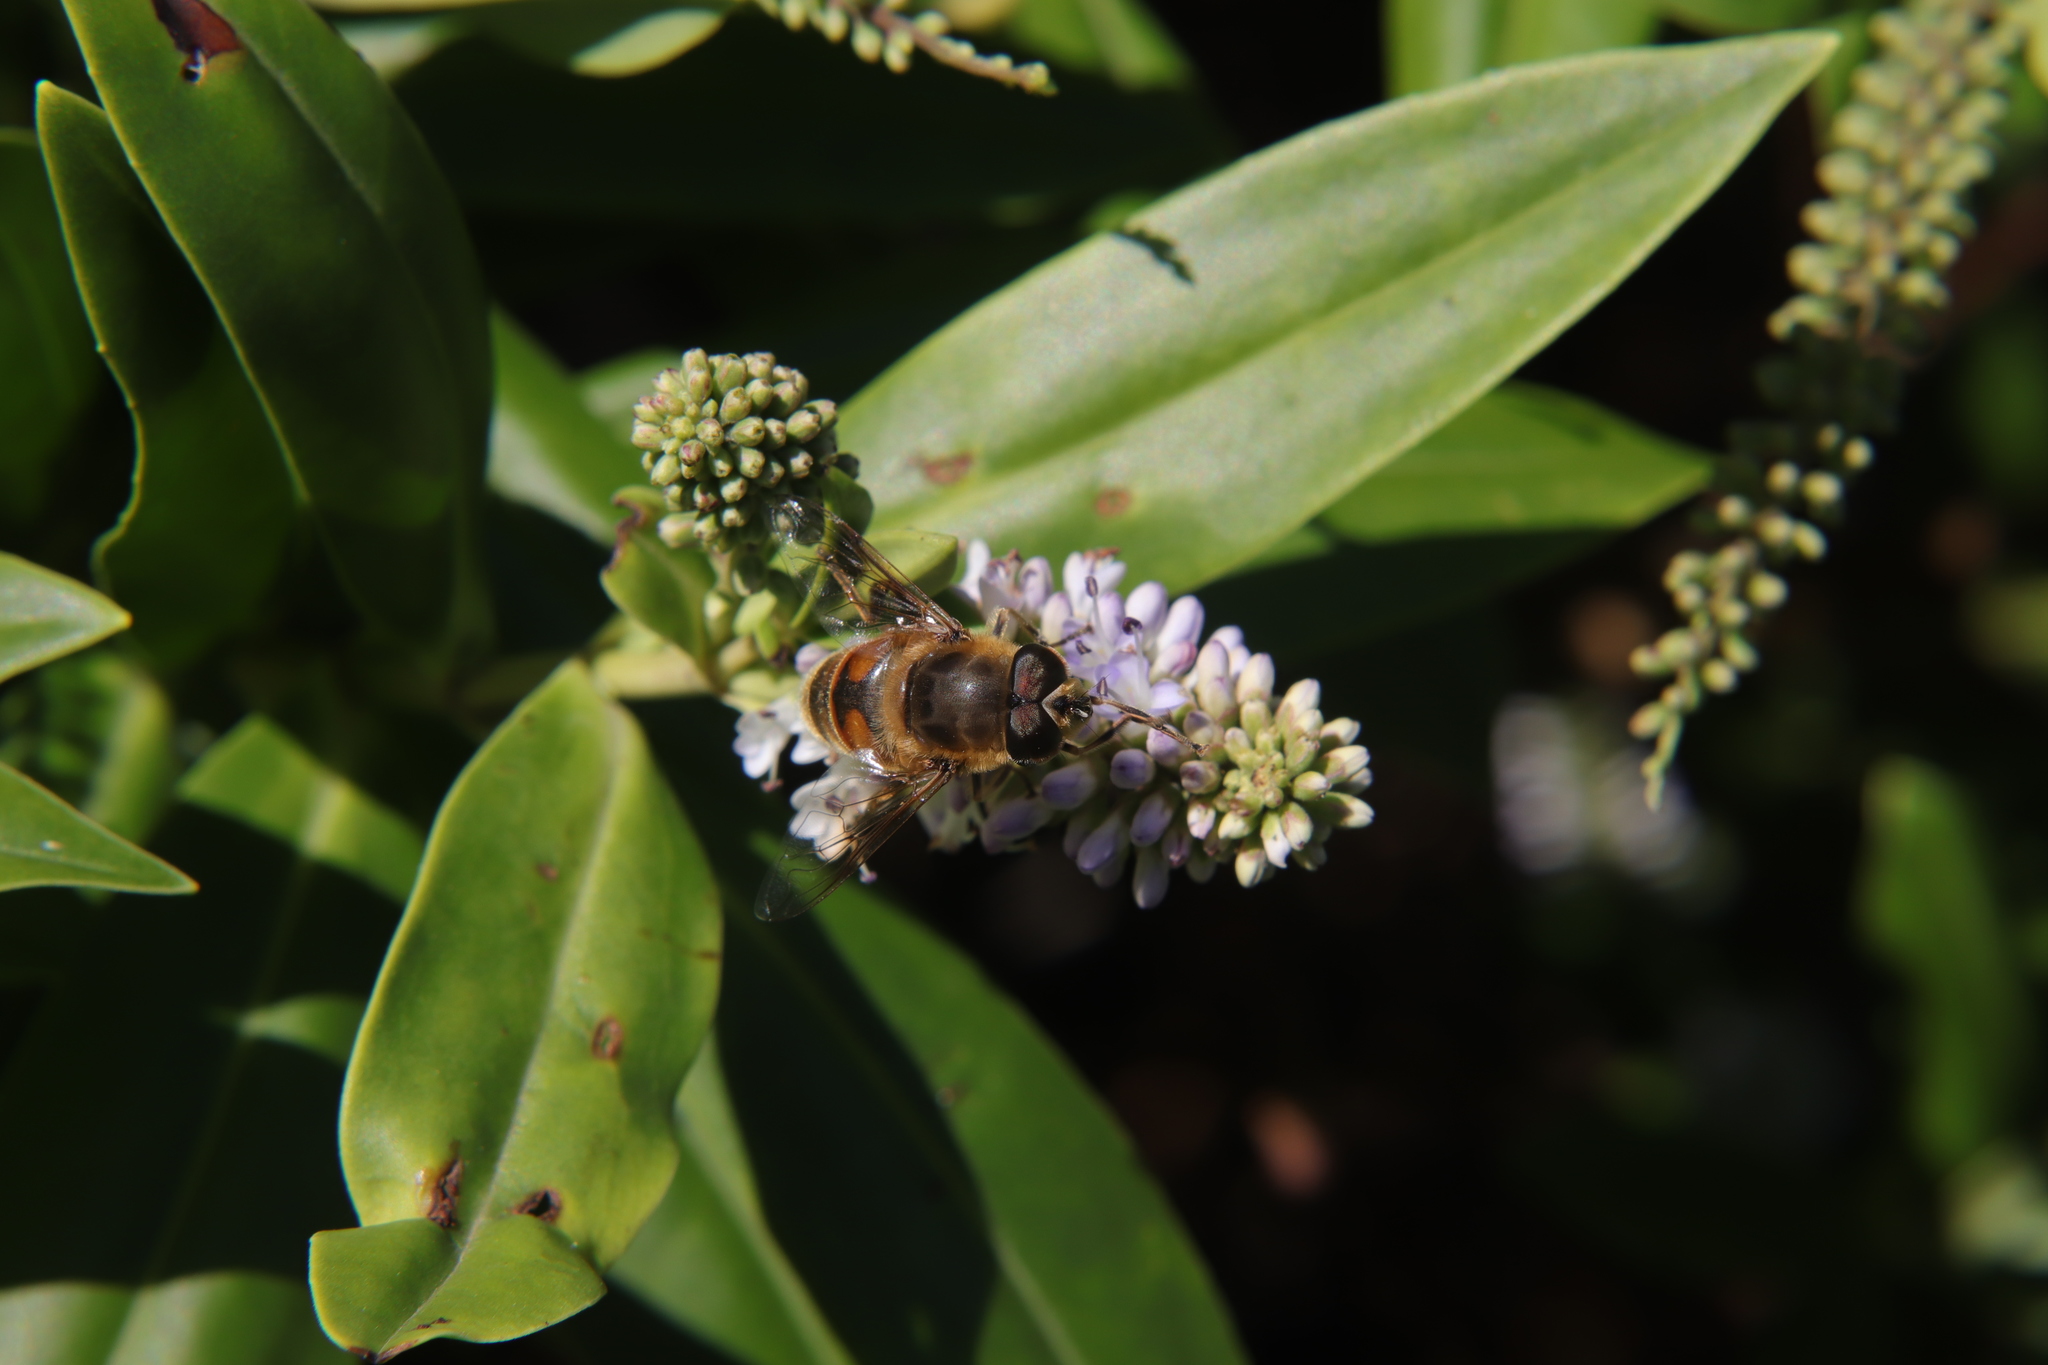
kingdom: Animalia
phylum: Arthropoda
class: Insecta
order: Diptera
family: Syrphidae
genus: Eristalis
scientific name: Eristalis tenax
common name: Drone fly
